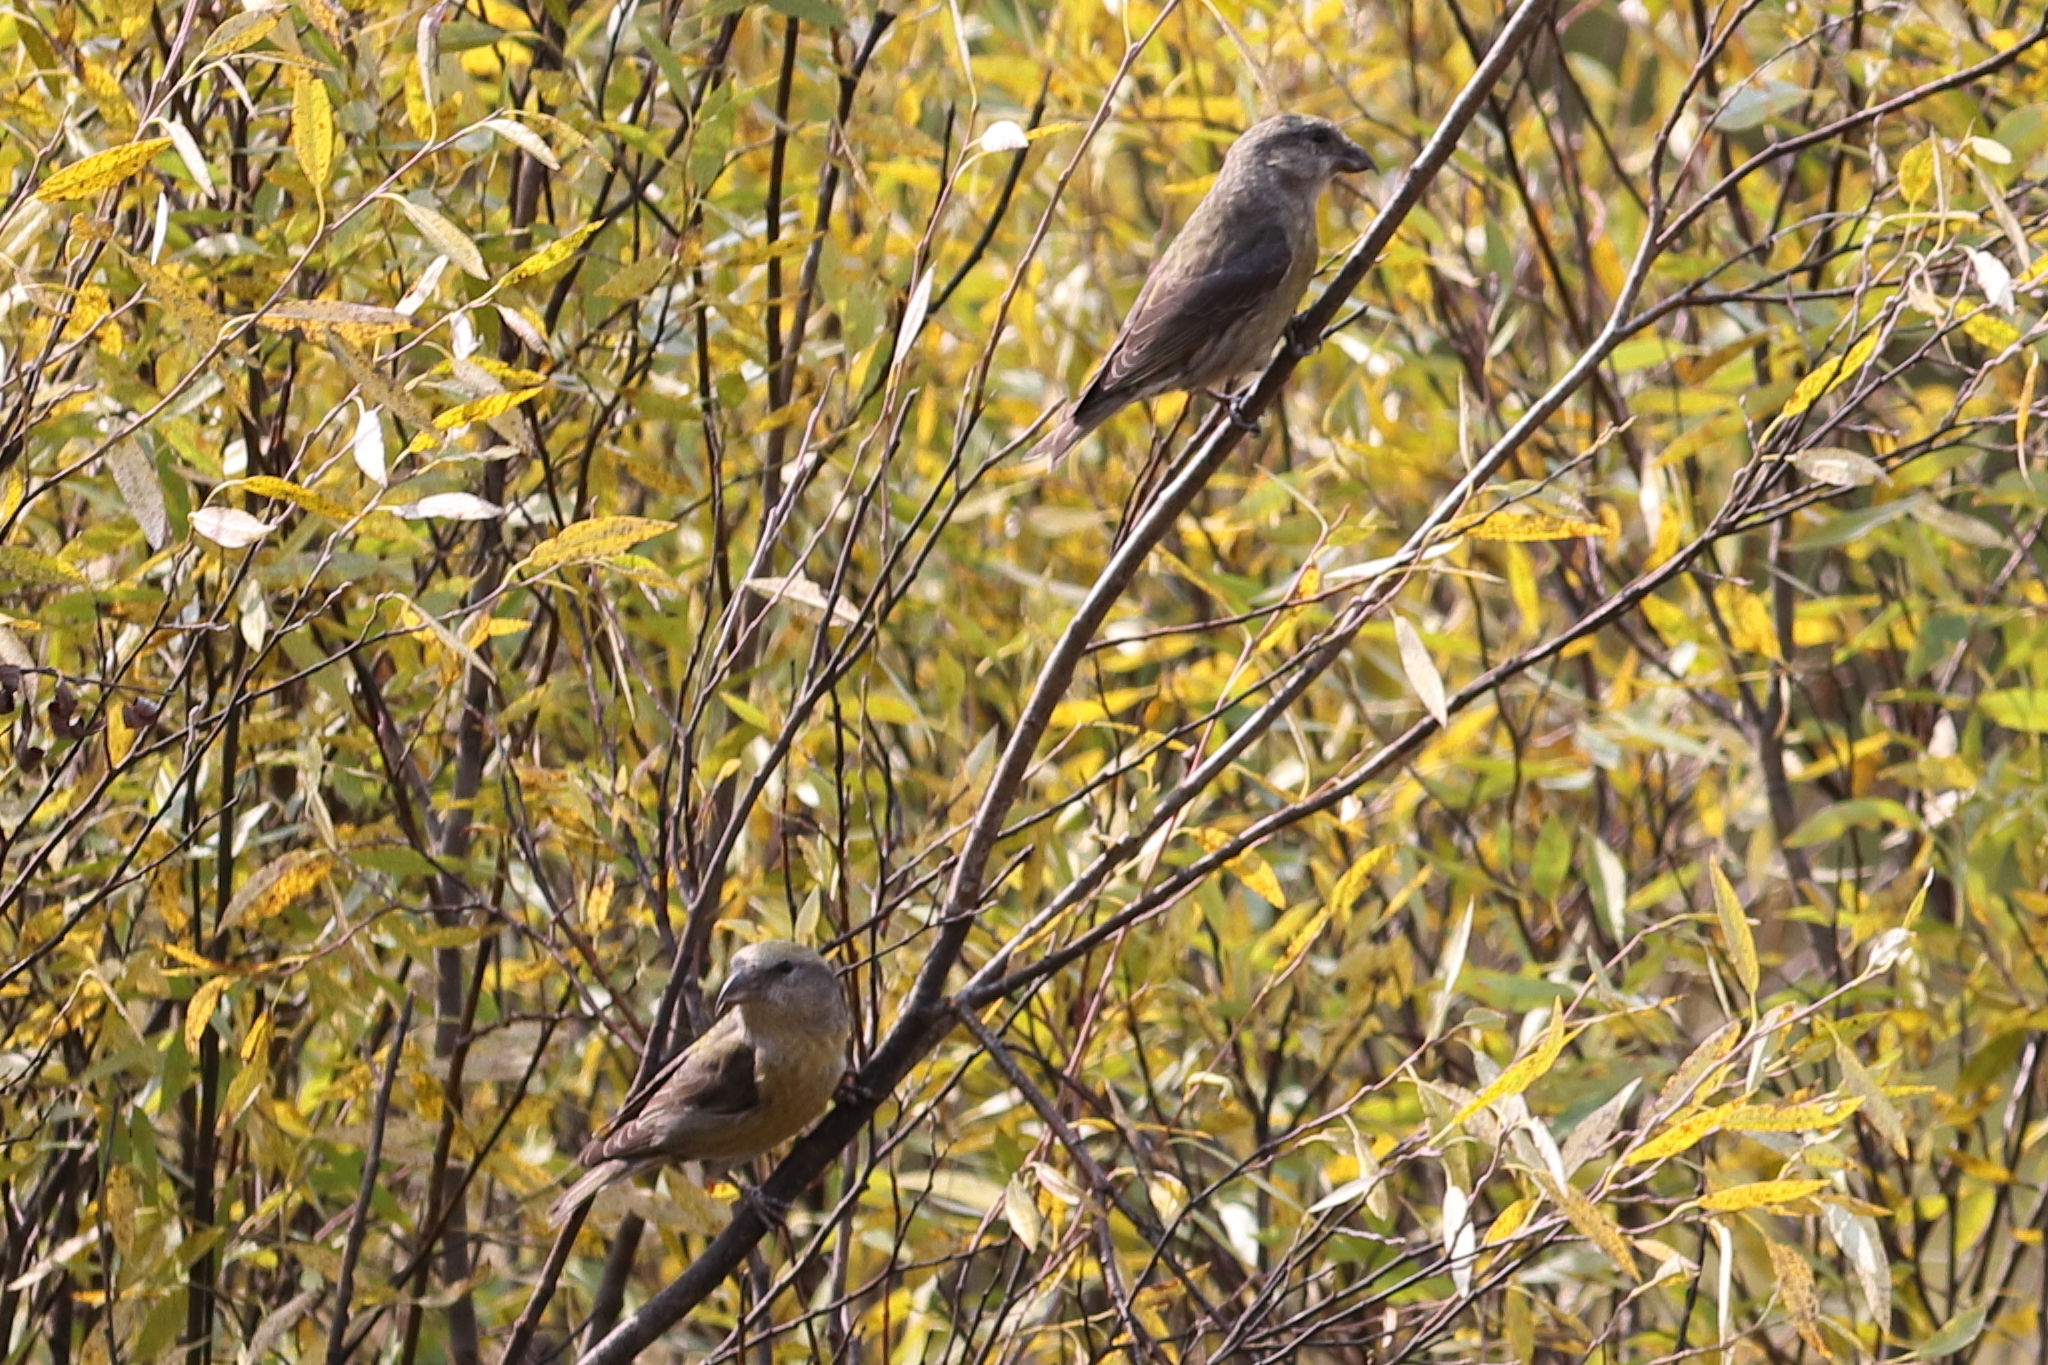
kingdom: Animalia
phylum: Chordata
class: Aves
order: Passeriformes
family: Fringillidae
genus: Loxia
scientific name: Loxia curvirostra
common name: Red crossbill
